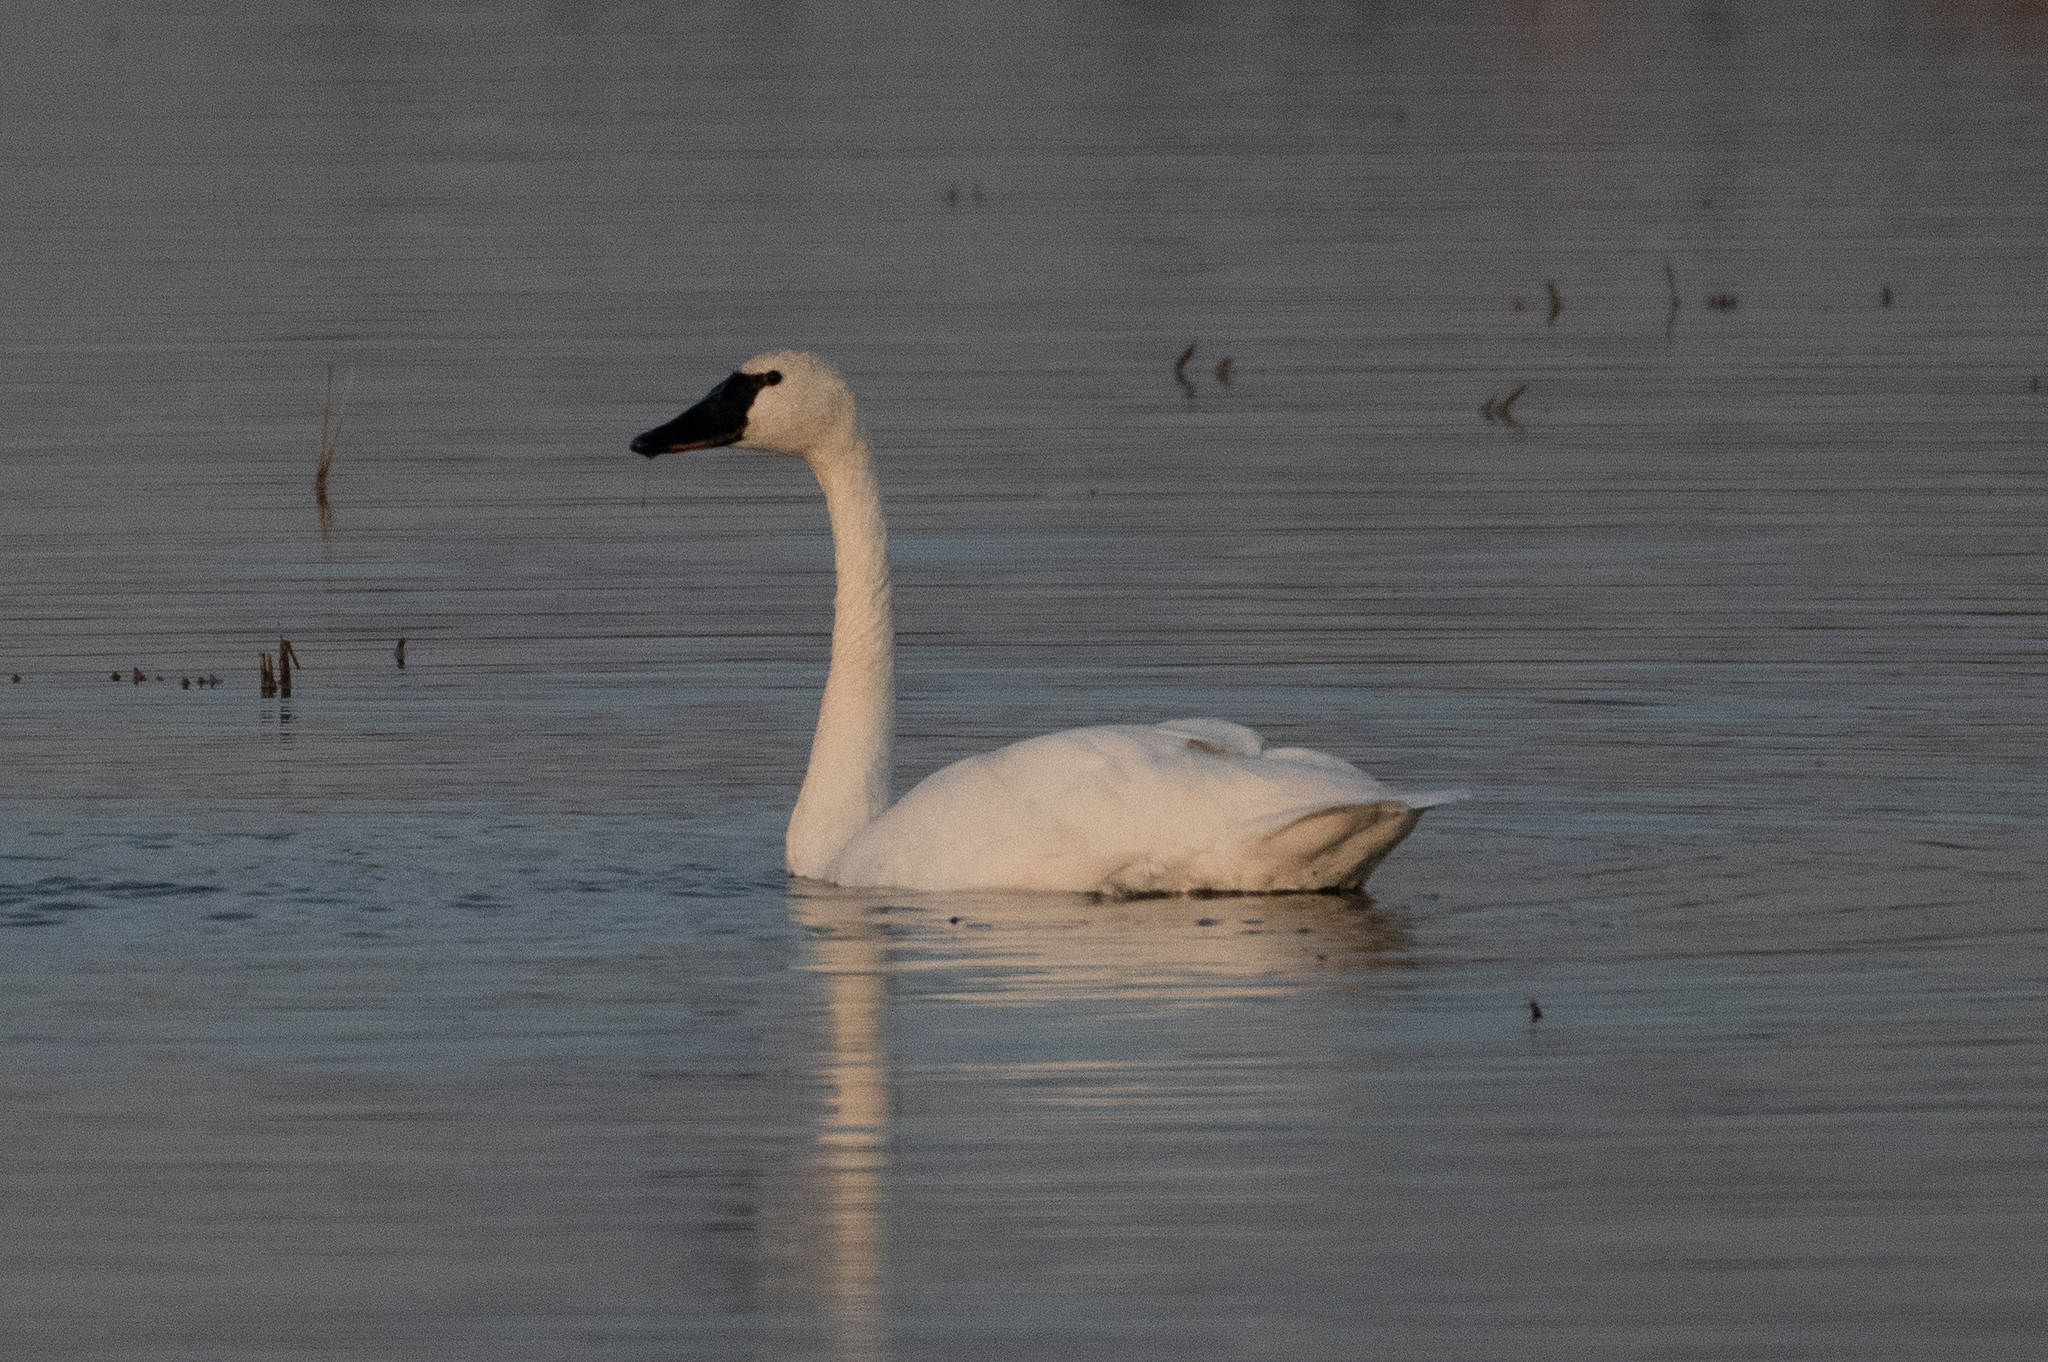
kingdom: Animalia
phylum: Chordata
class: Aves
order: Anseriformes
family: Anatidae
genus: Cygnus
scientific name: Cygnus columbianus
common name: Tundra swan
